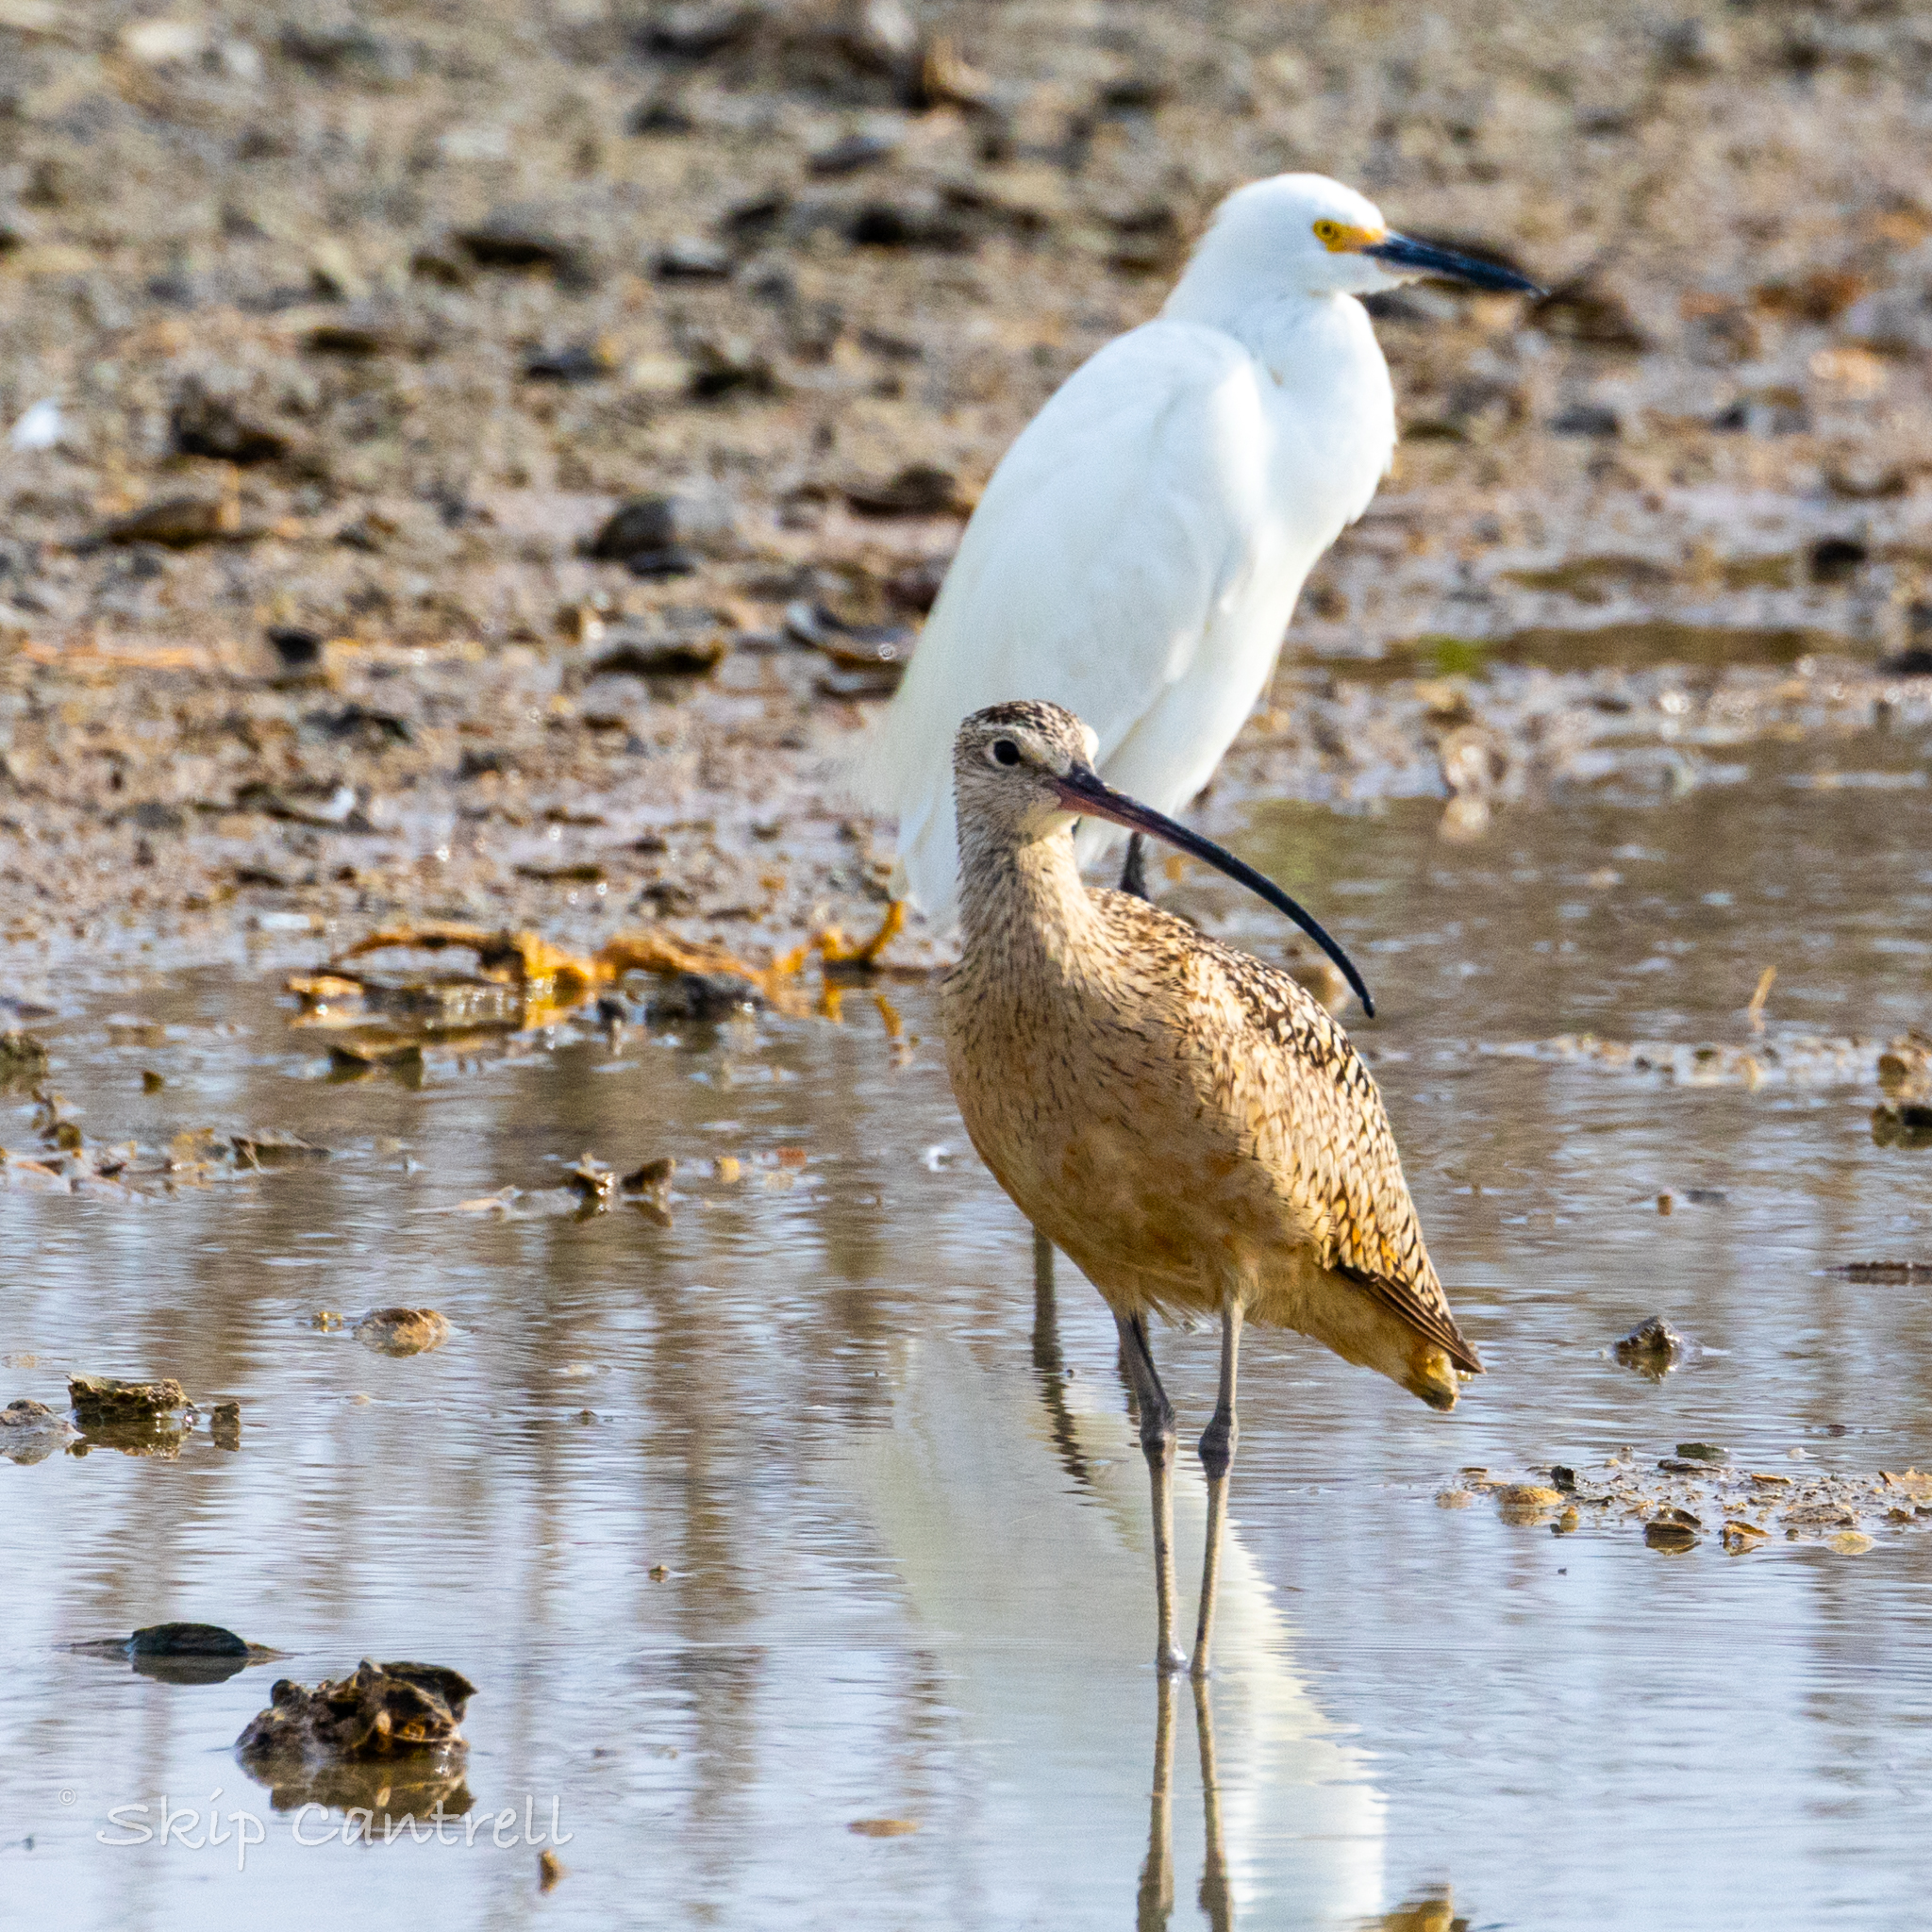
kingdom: Animalia
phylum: Chordata
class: Aves
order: Charadriiformes
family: Scolopacidae
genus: Numenius
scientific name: Numenius americanus
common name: Long-billed curlew
